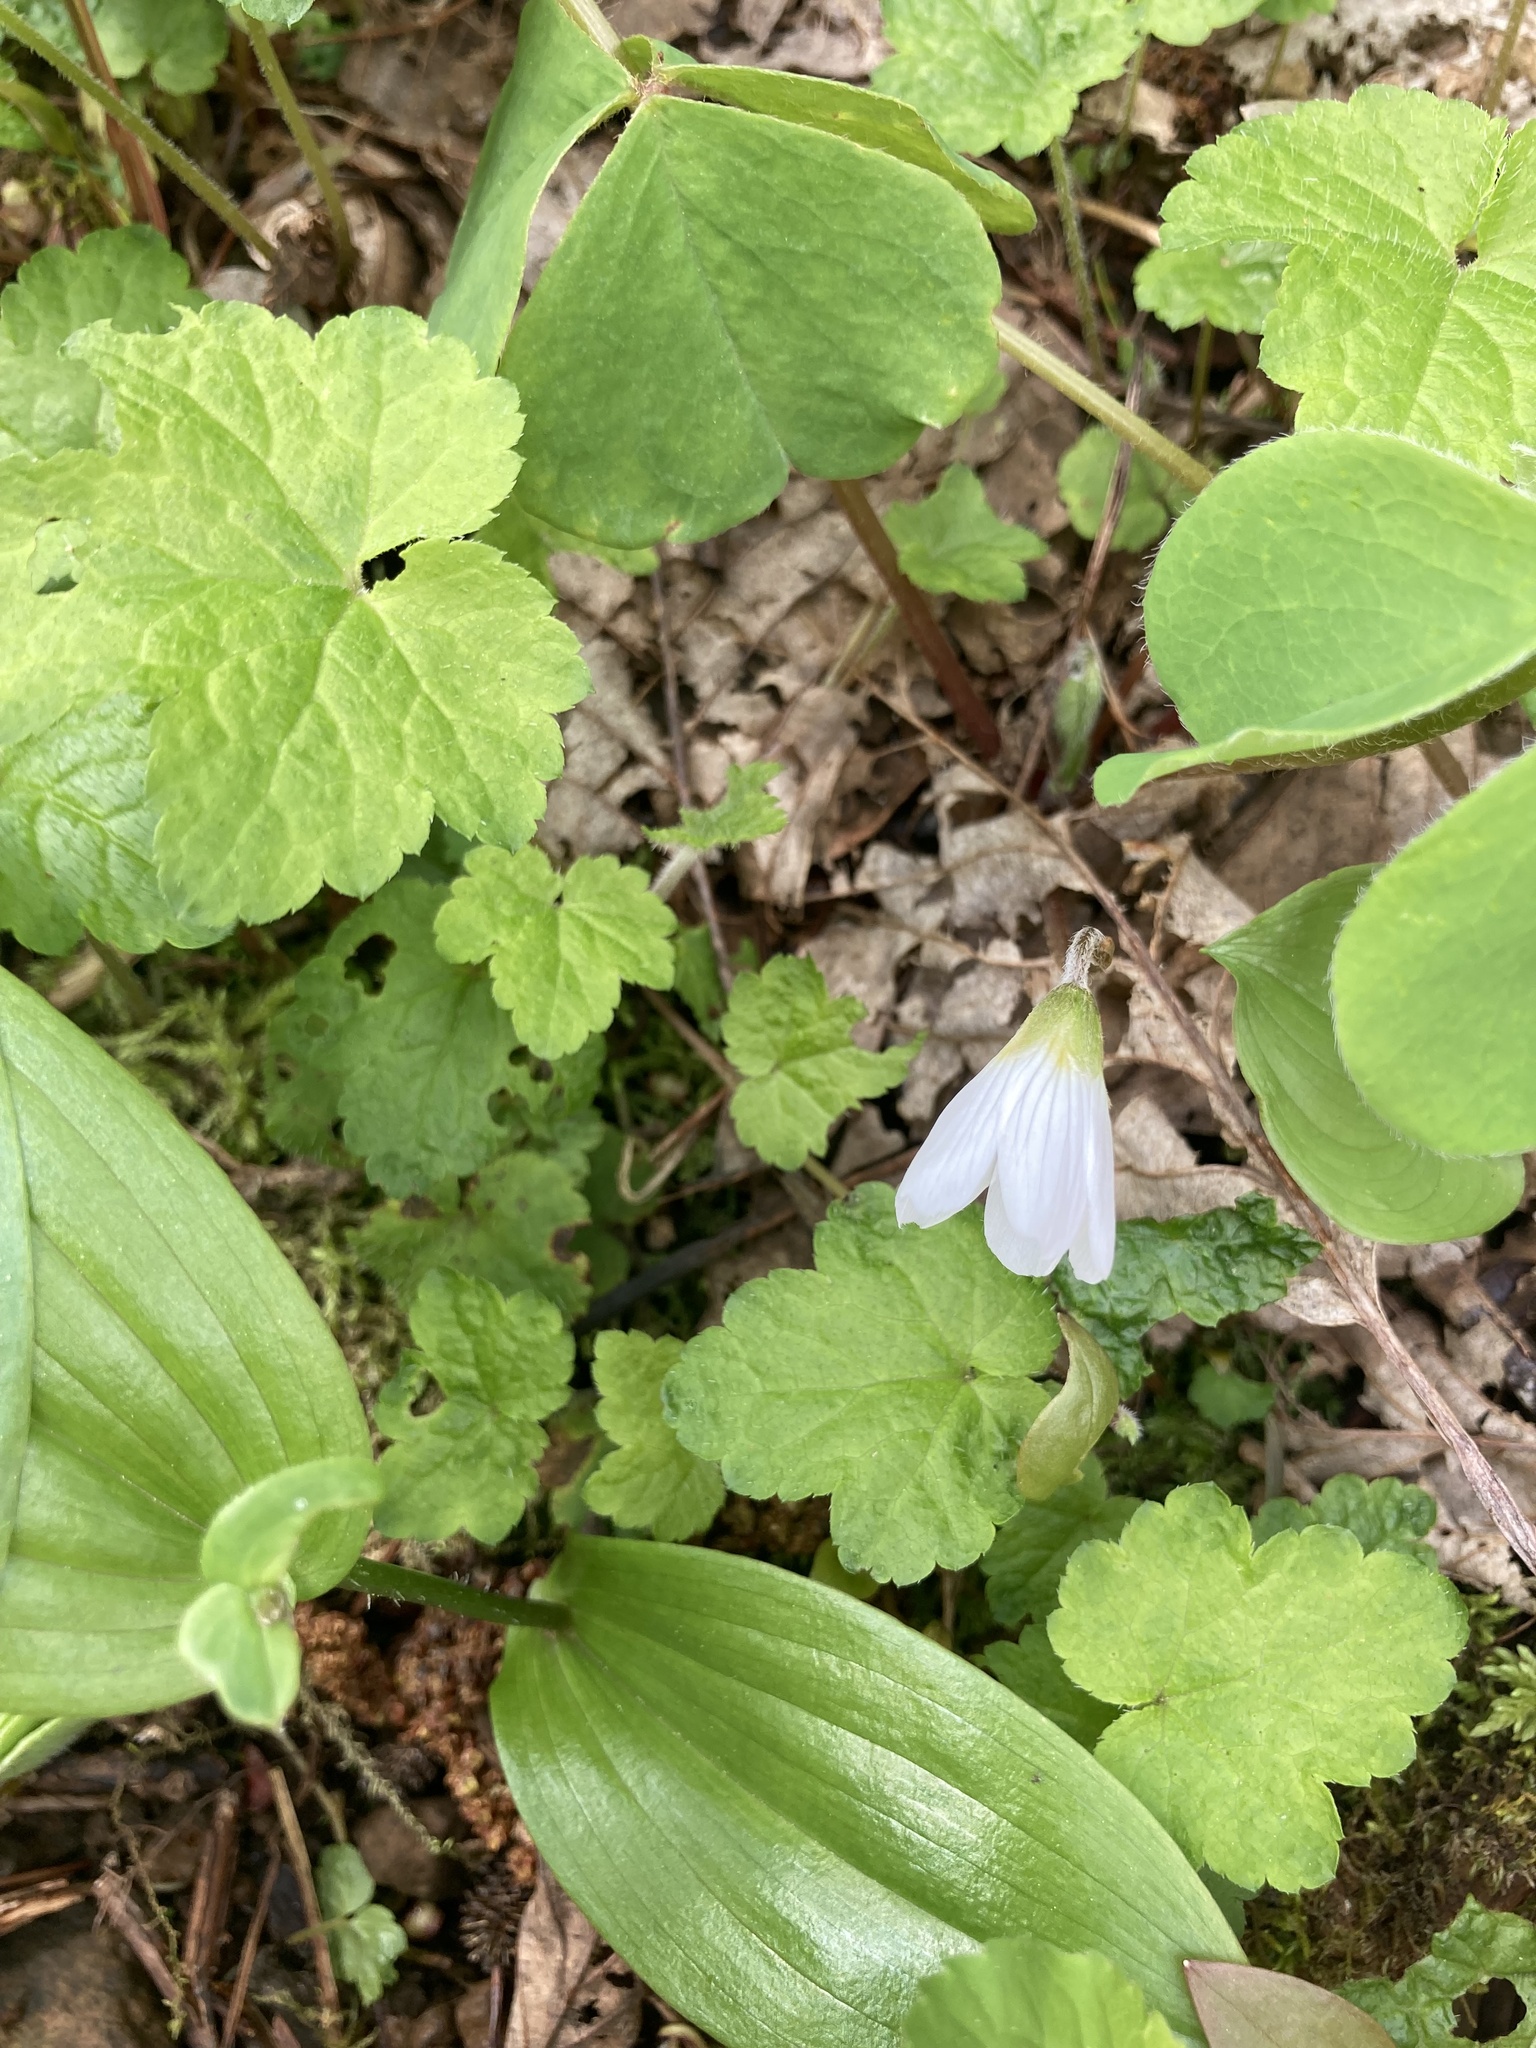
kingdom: Plantae
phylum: Tracheophyta
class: Magnoliopsida
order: Oxalidales
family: Oxalidaceae
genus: Oxalis
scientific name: Oxalis oregana
